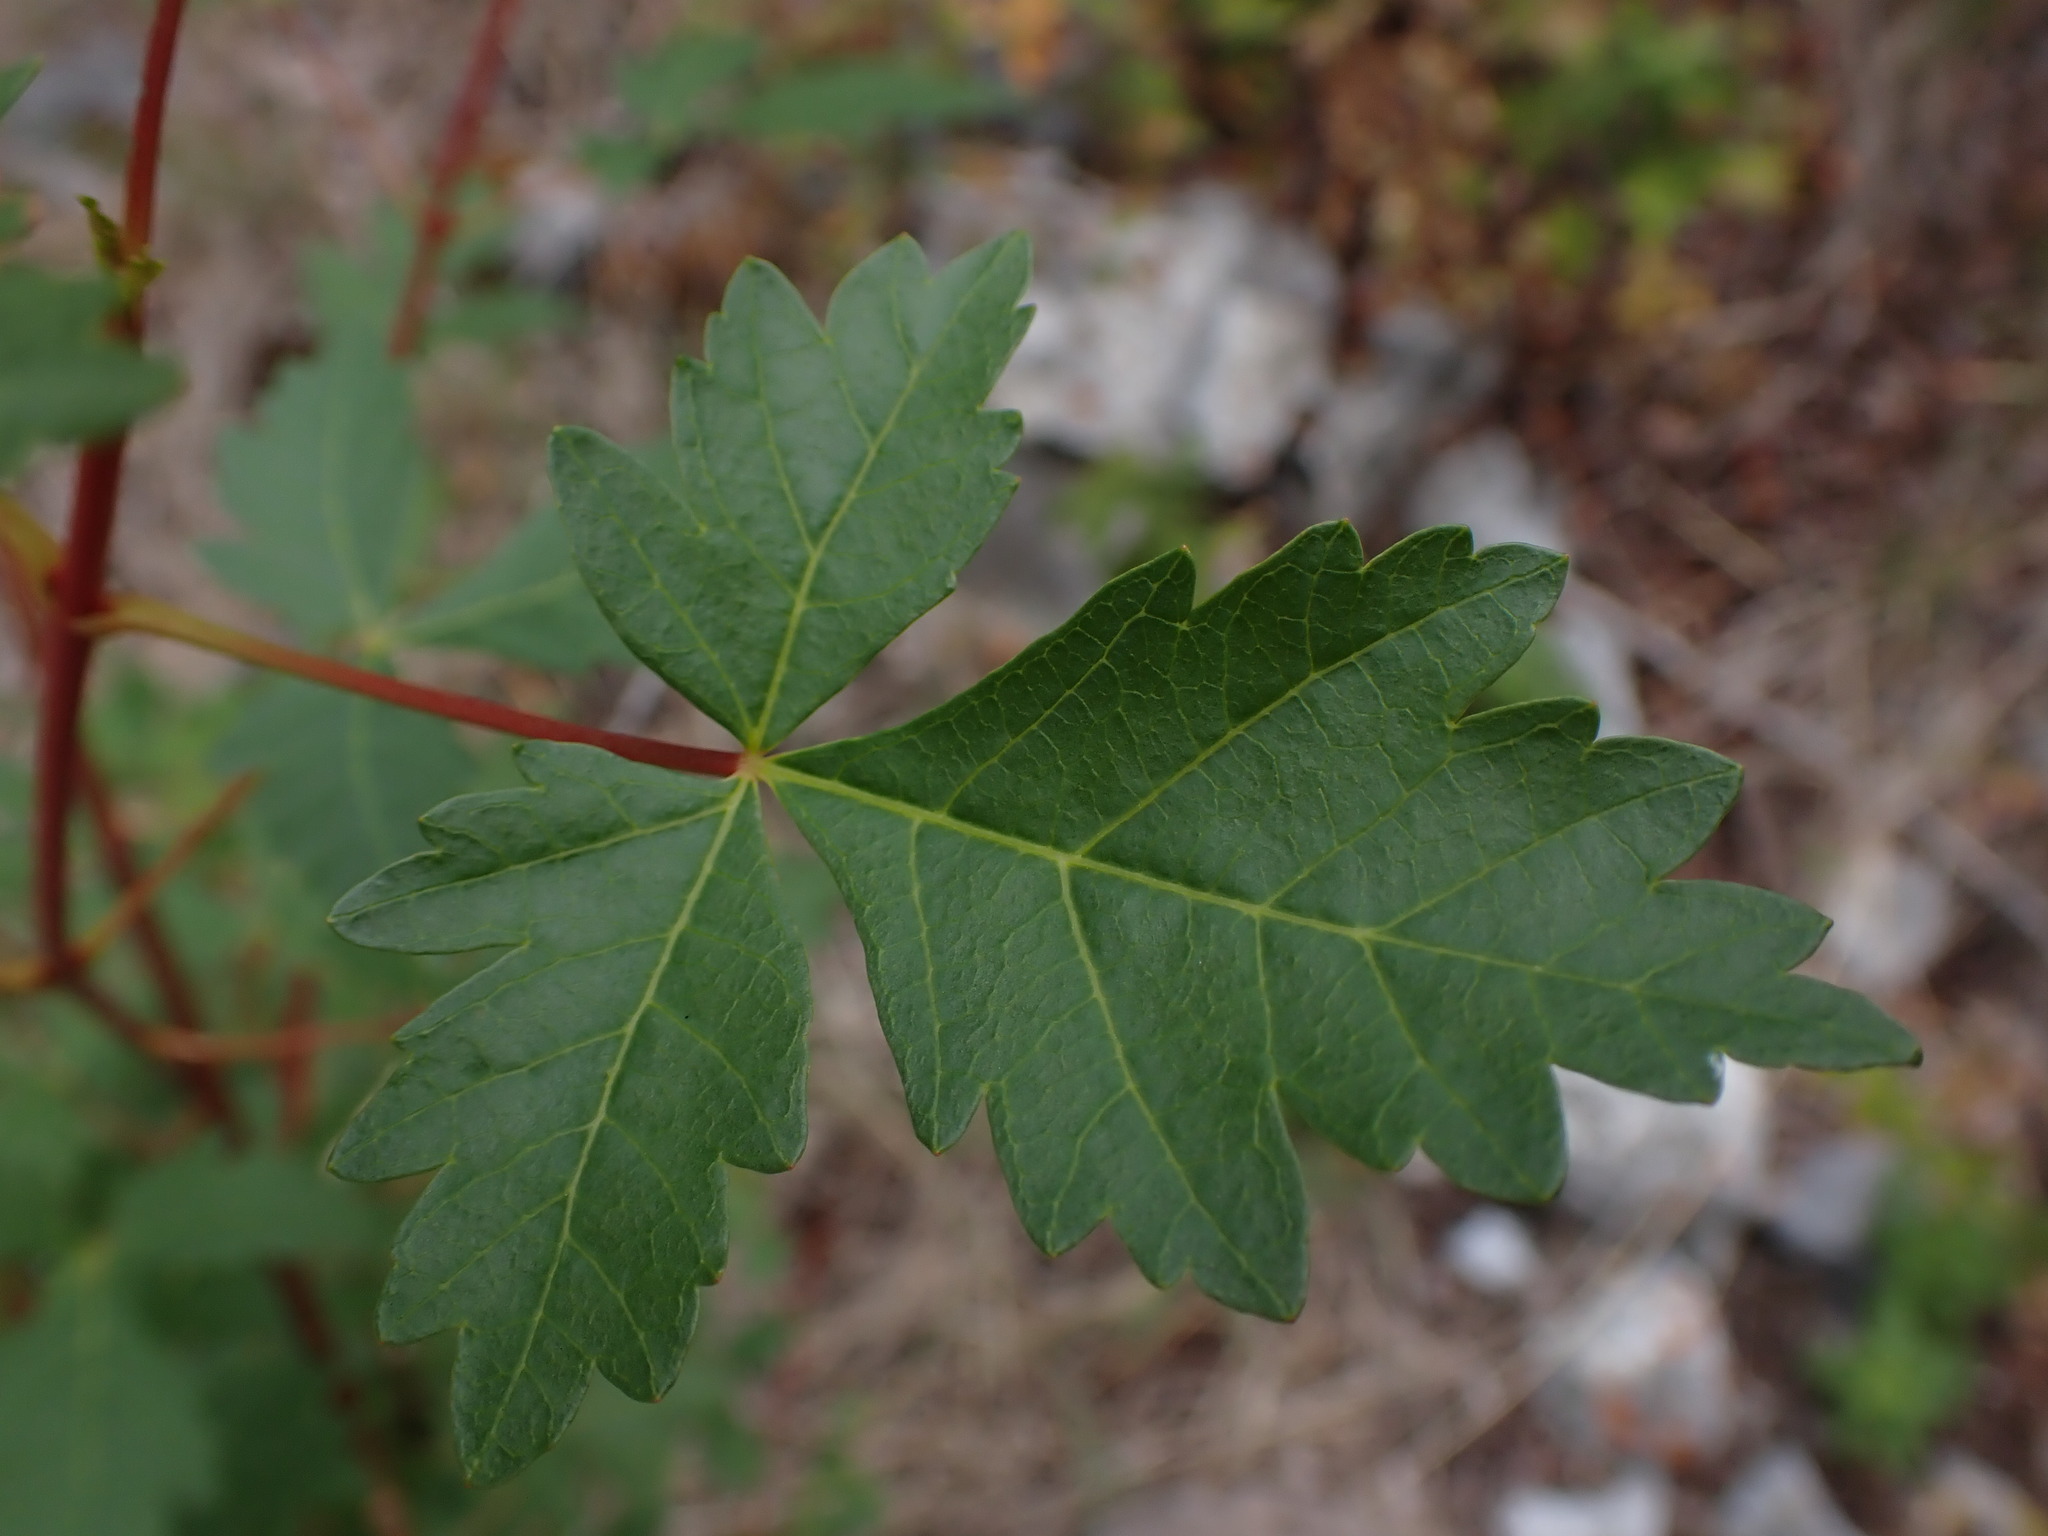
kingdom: Plantae
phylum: Tracheophyta
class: Magnoliopsida
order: Sapindales
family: Sapindaceae
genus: Acer
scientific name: Acer glabrum
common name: Rocky mountain maple
